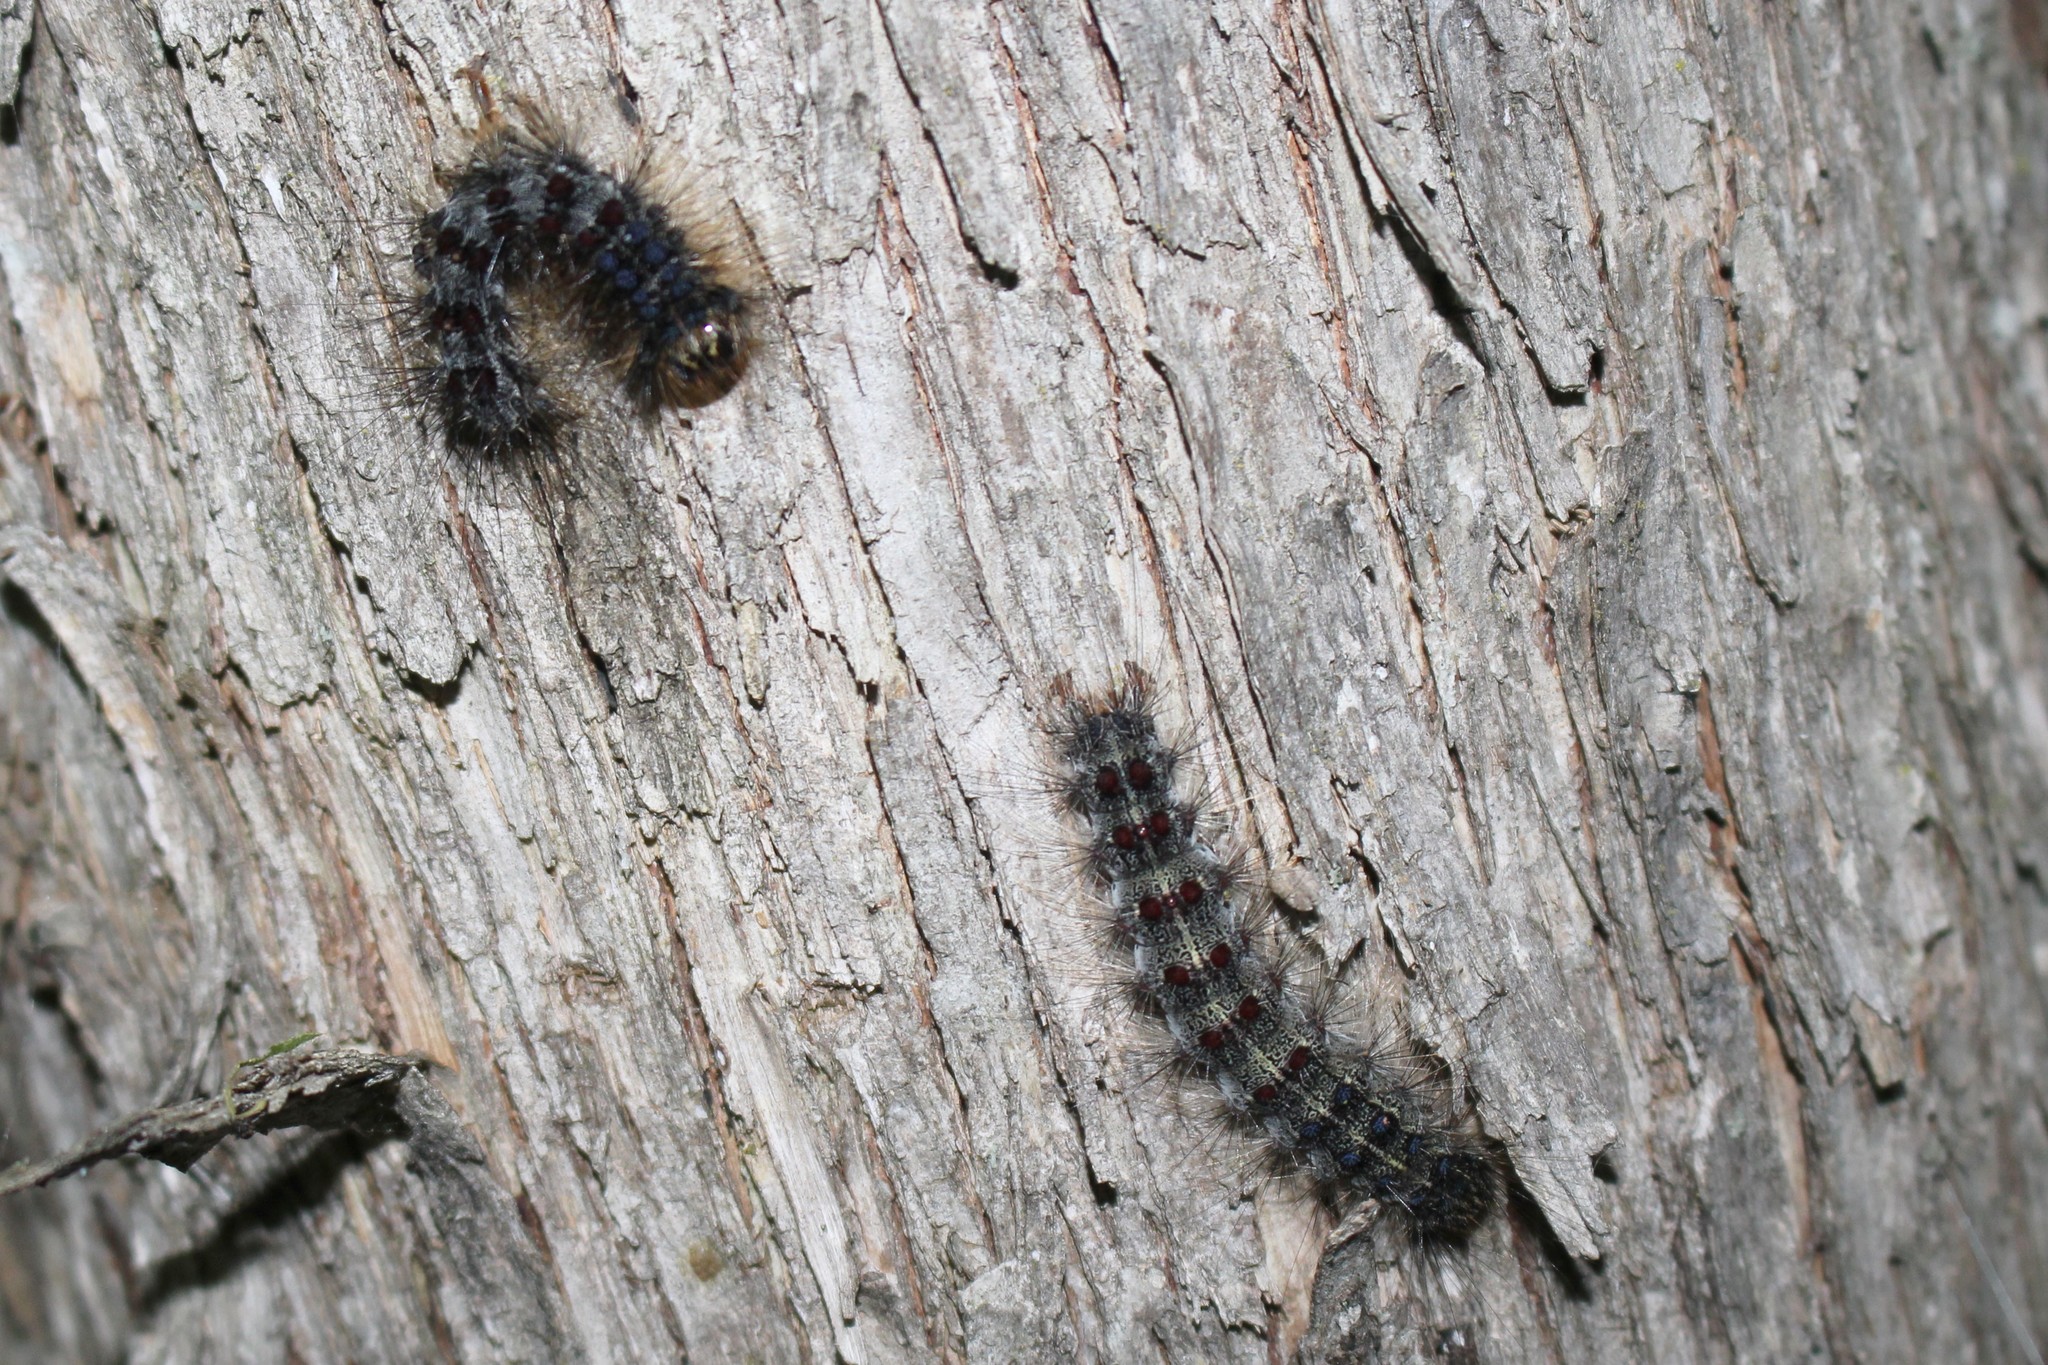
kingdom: Animalia
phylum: Arthropoda
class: Insecta
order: Lepidoptera
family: Erebidae
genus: Lymantria
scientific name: Lymantria dispar
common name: Gypsy moth
